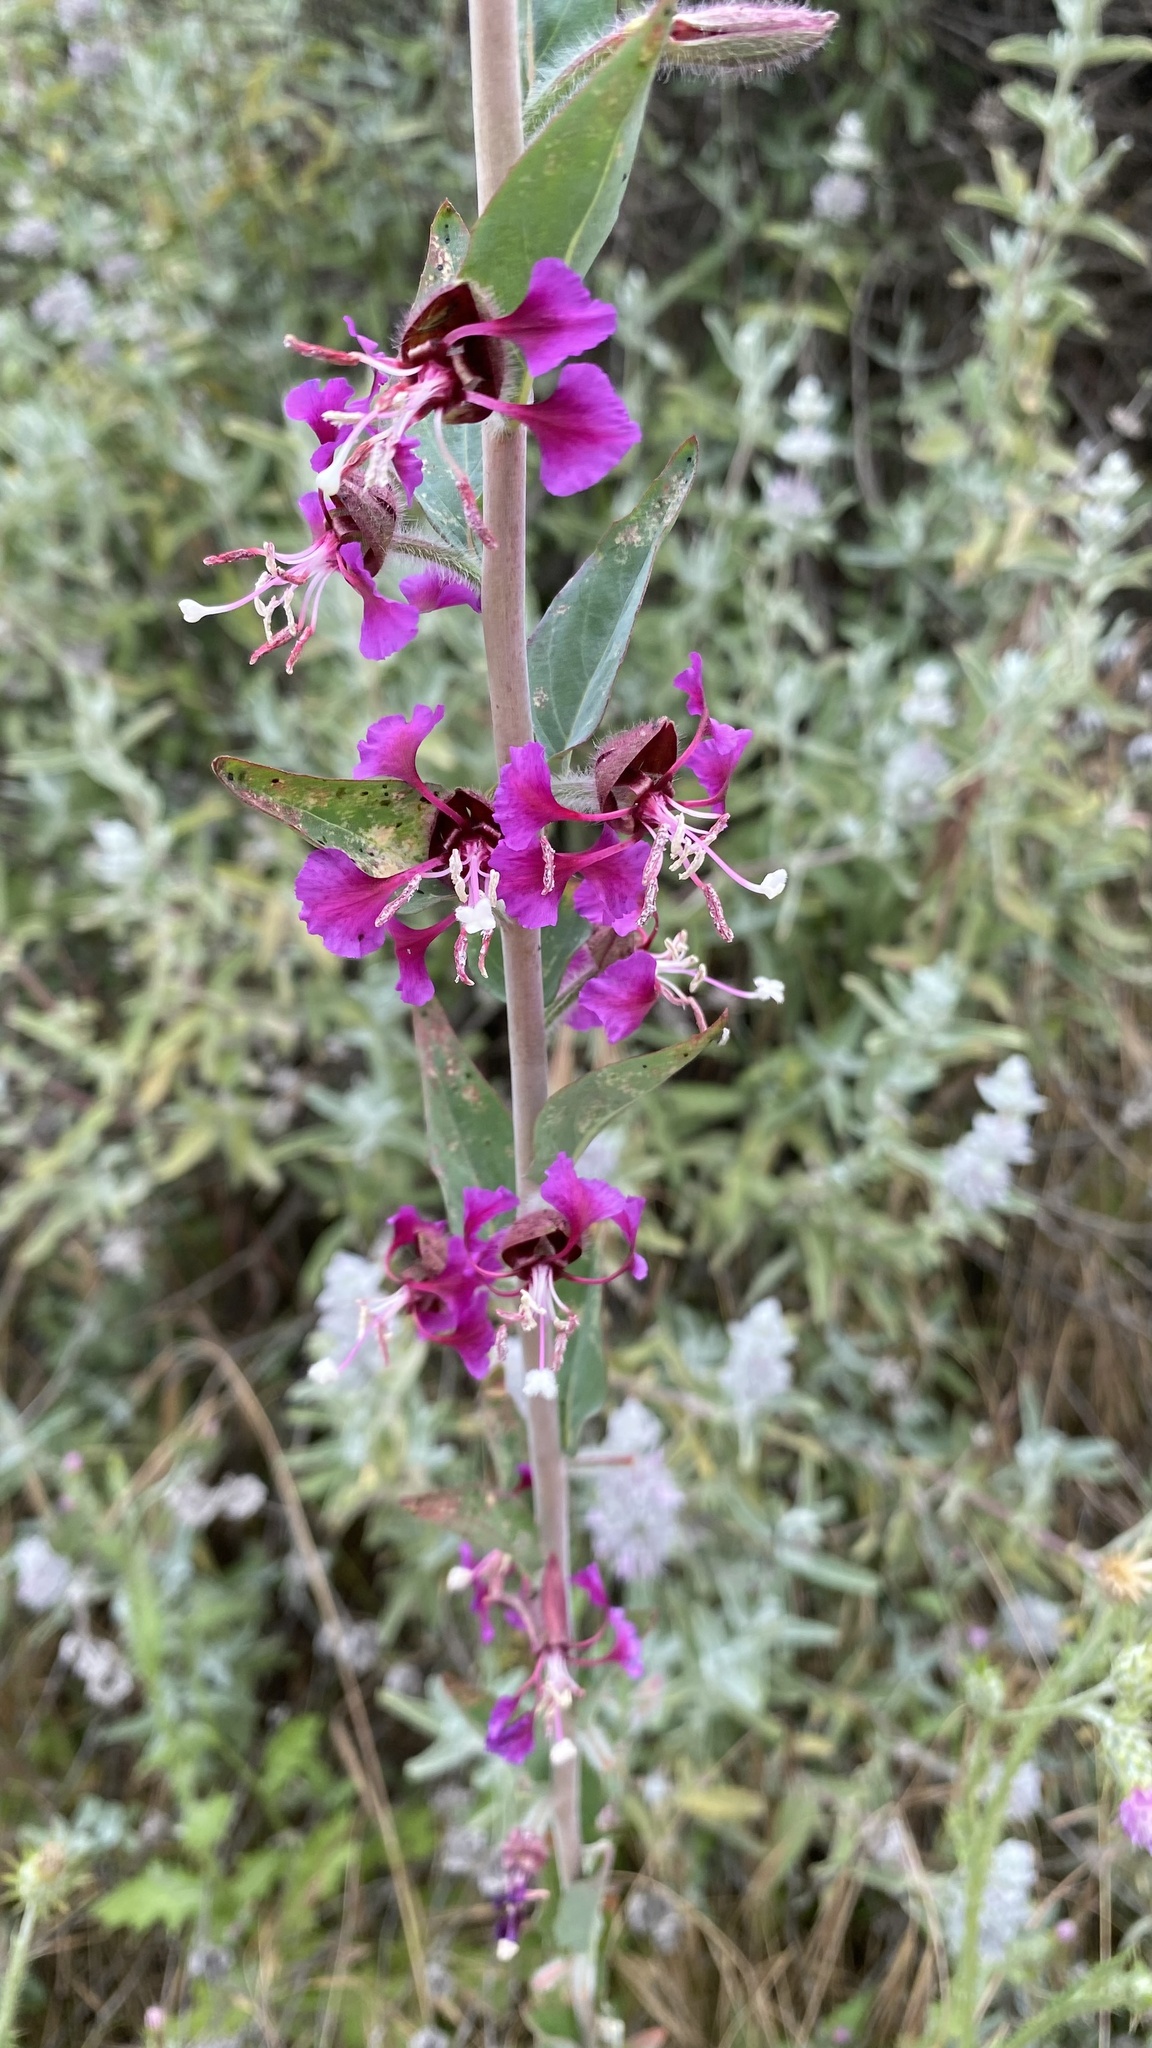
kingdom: Plantae
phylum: Tracheophyta
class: Magnoliopsida
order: Myrtales
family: Onagraceae
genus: Clarkia
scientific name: Clarkia unguiculata
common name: Clarkia
